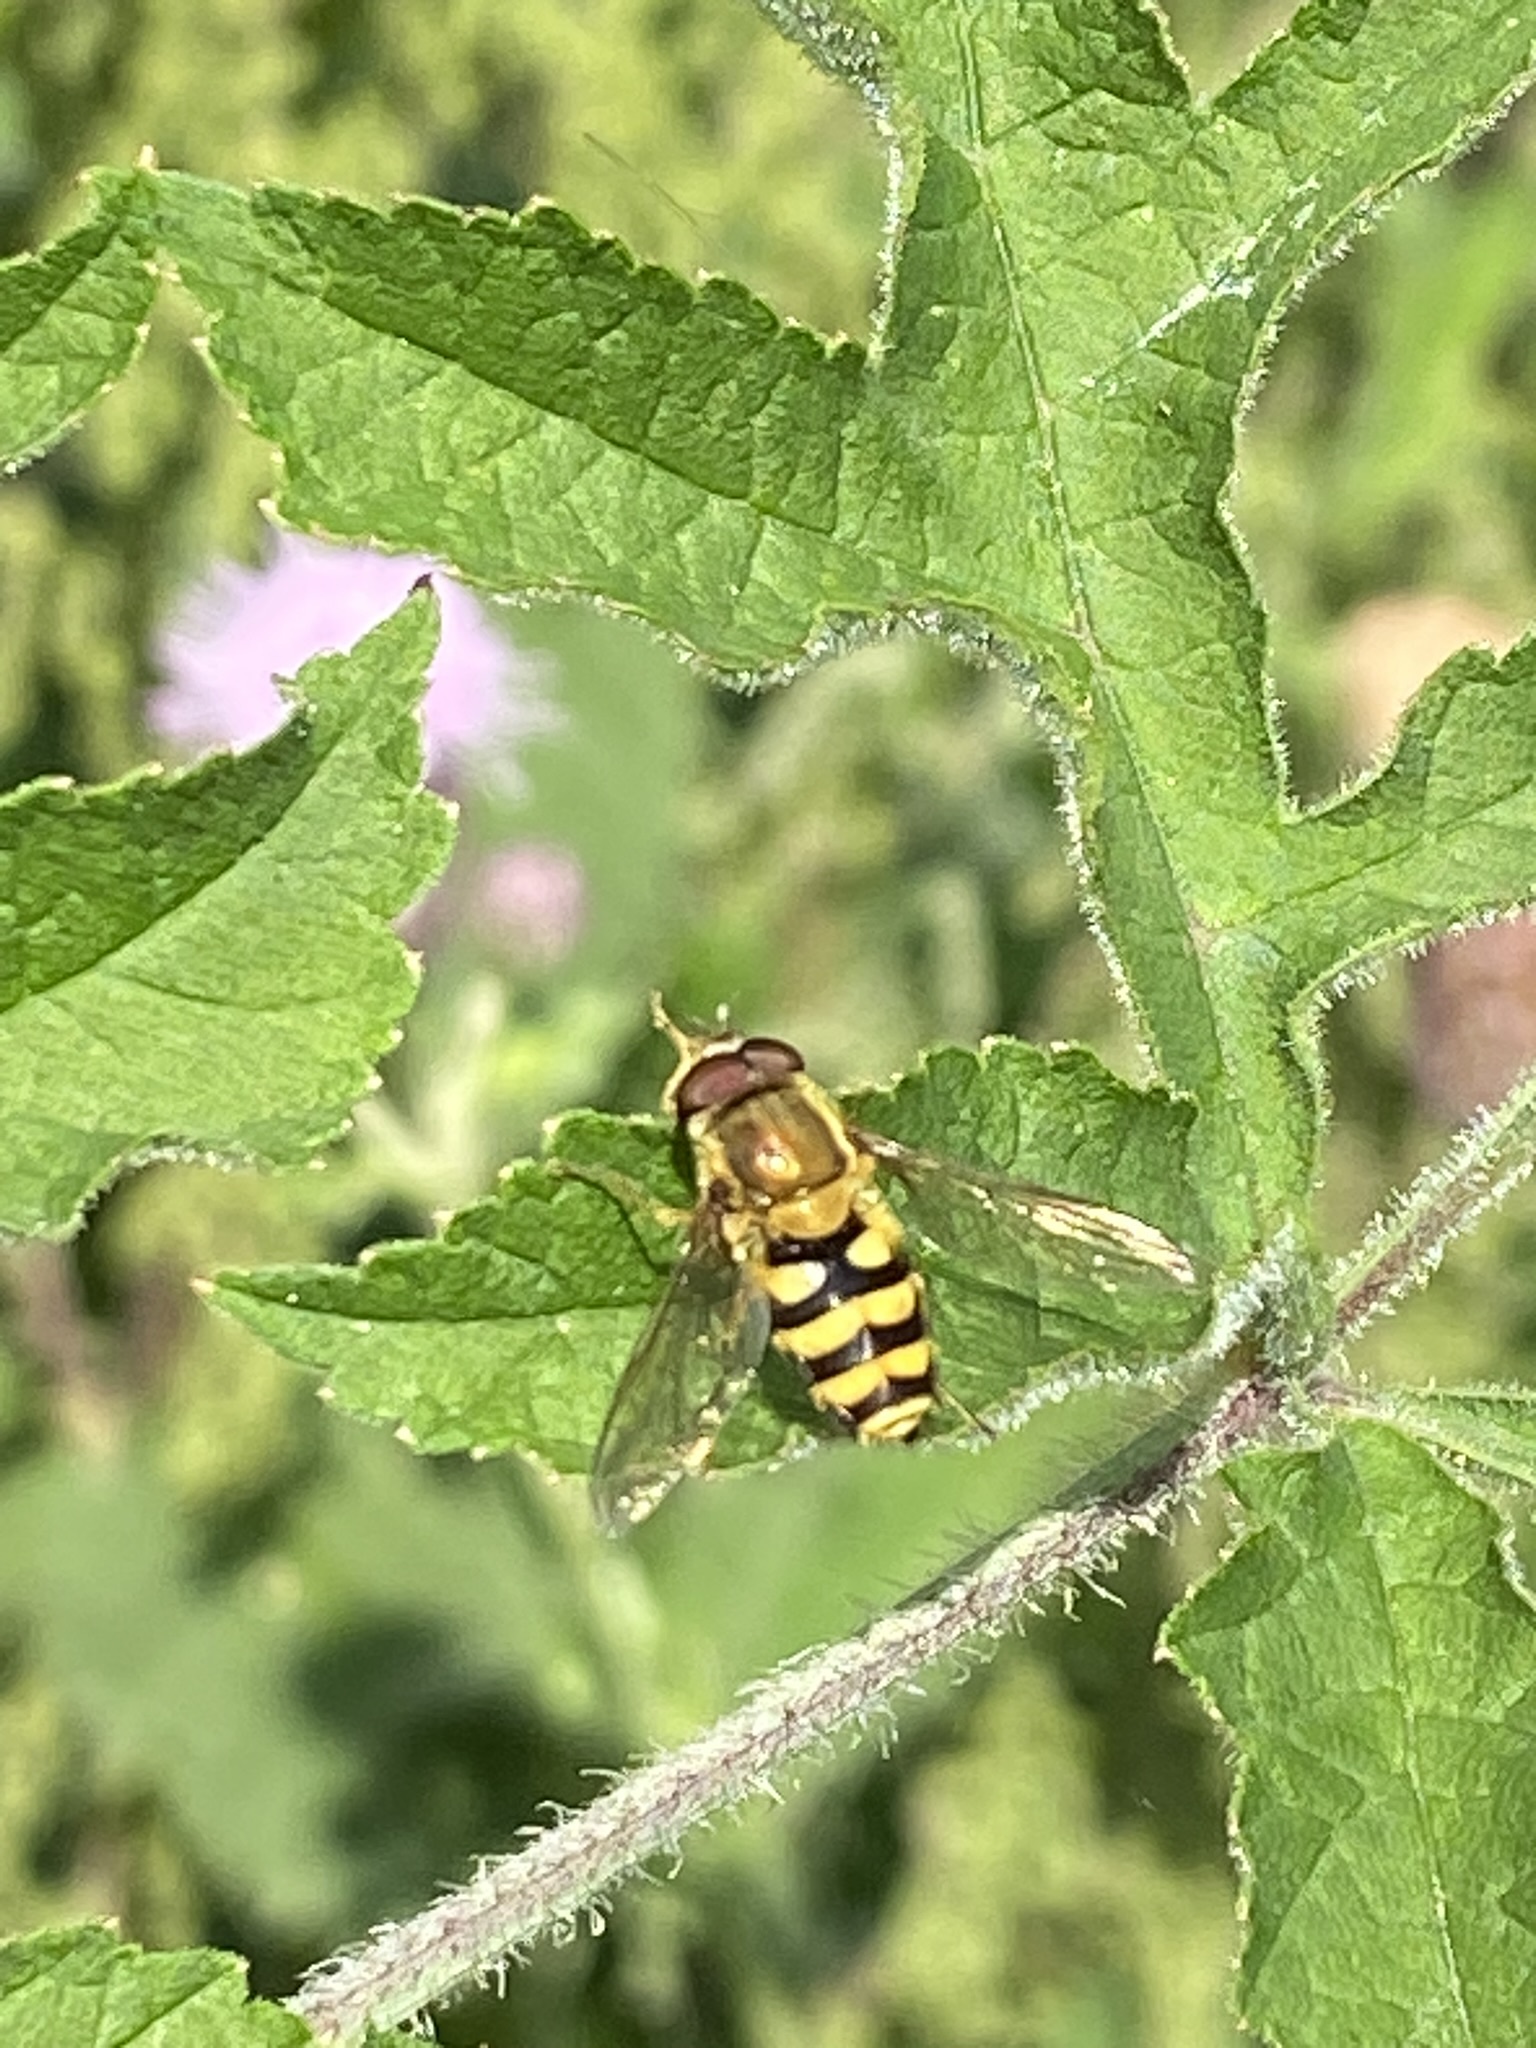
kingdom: Animalia
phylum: Arthropoda
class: Insecta
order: Diptera
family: Syrphidae
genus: Syrphus
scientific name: Syrphus
